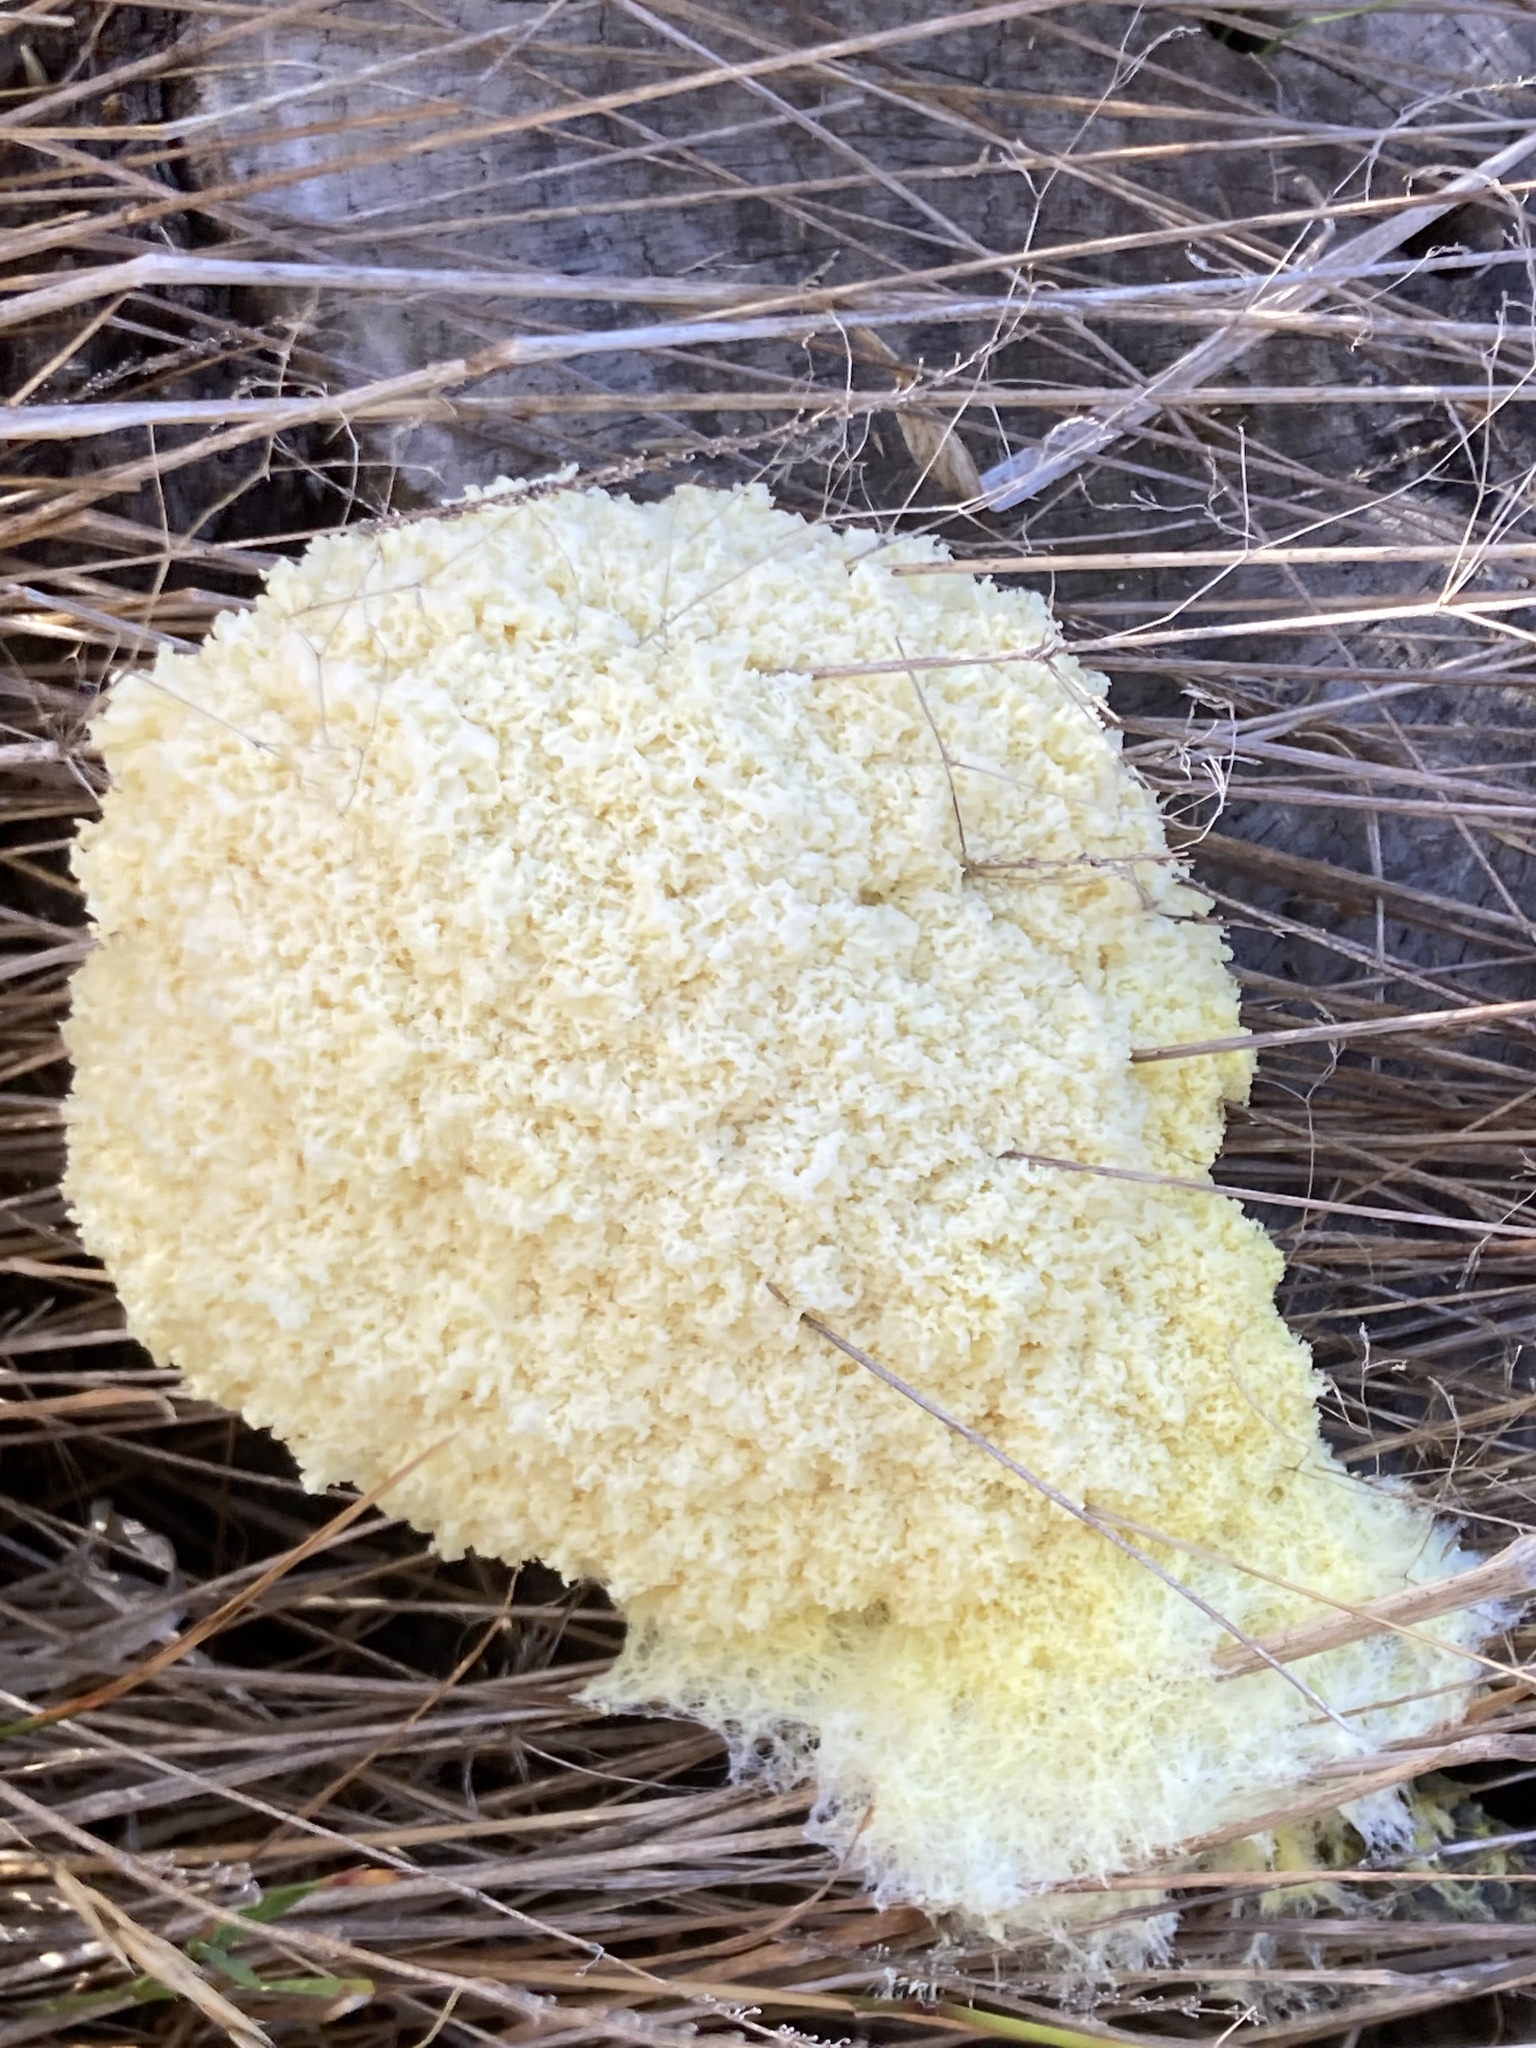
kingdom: Protozoa
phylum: Mycetozoa
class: Myxomycetes
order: Physarales
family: Physaraceae
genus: Fuligo
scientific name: Fuligo septica
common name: Dog vomit slime mold
